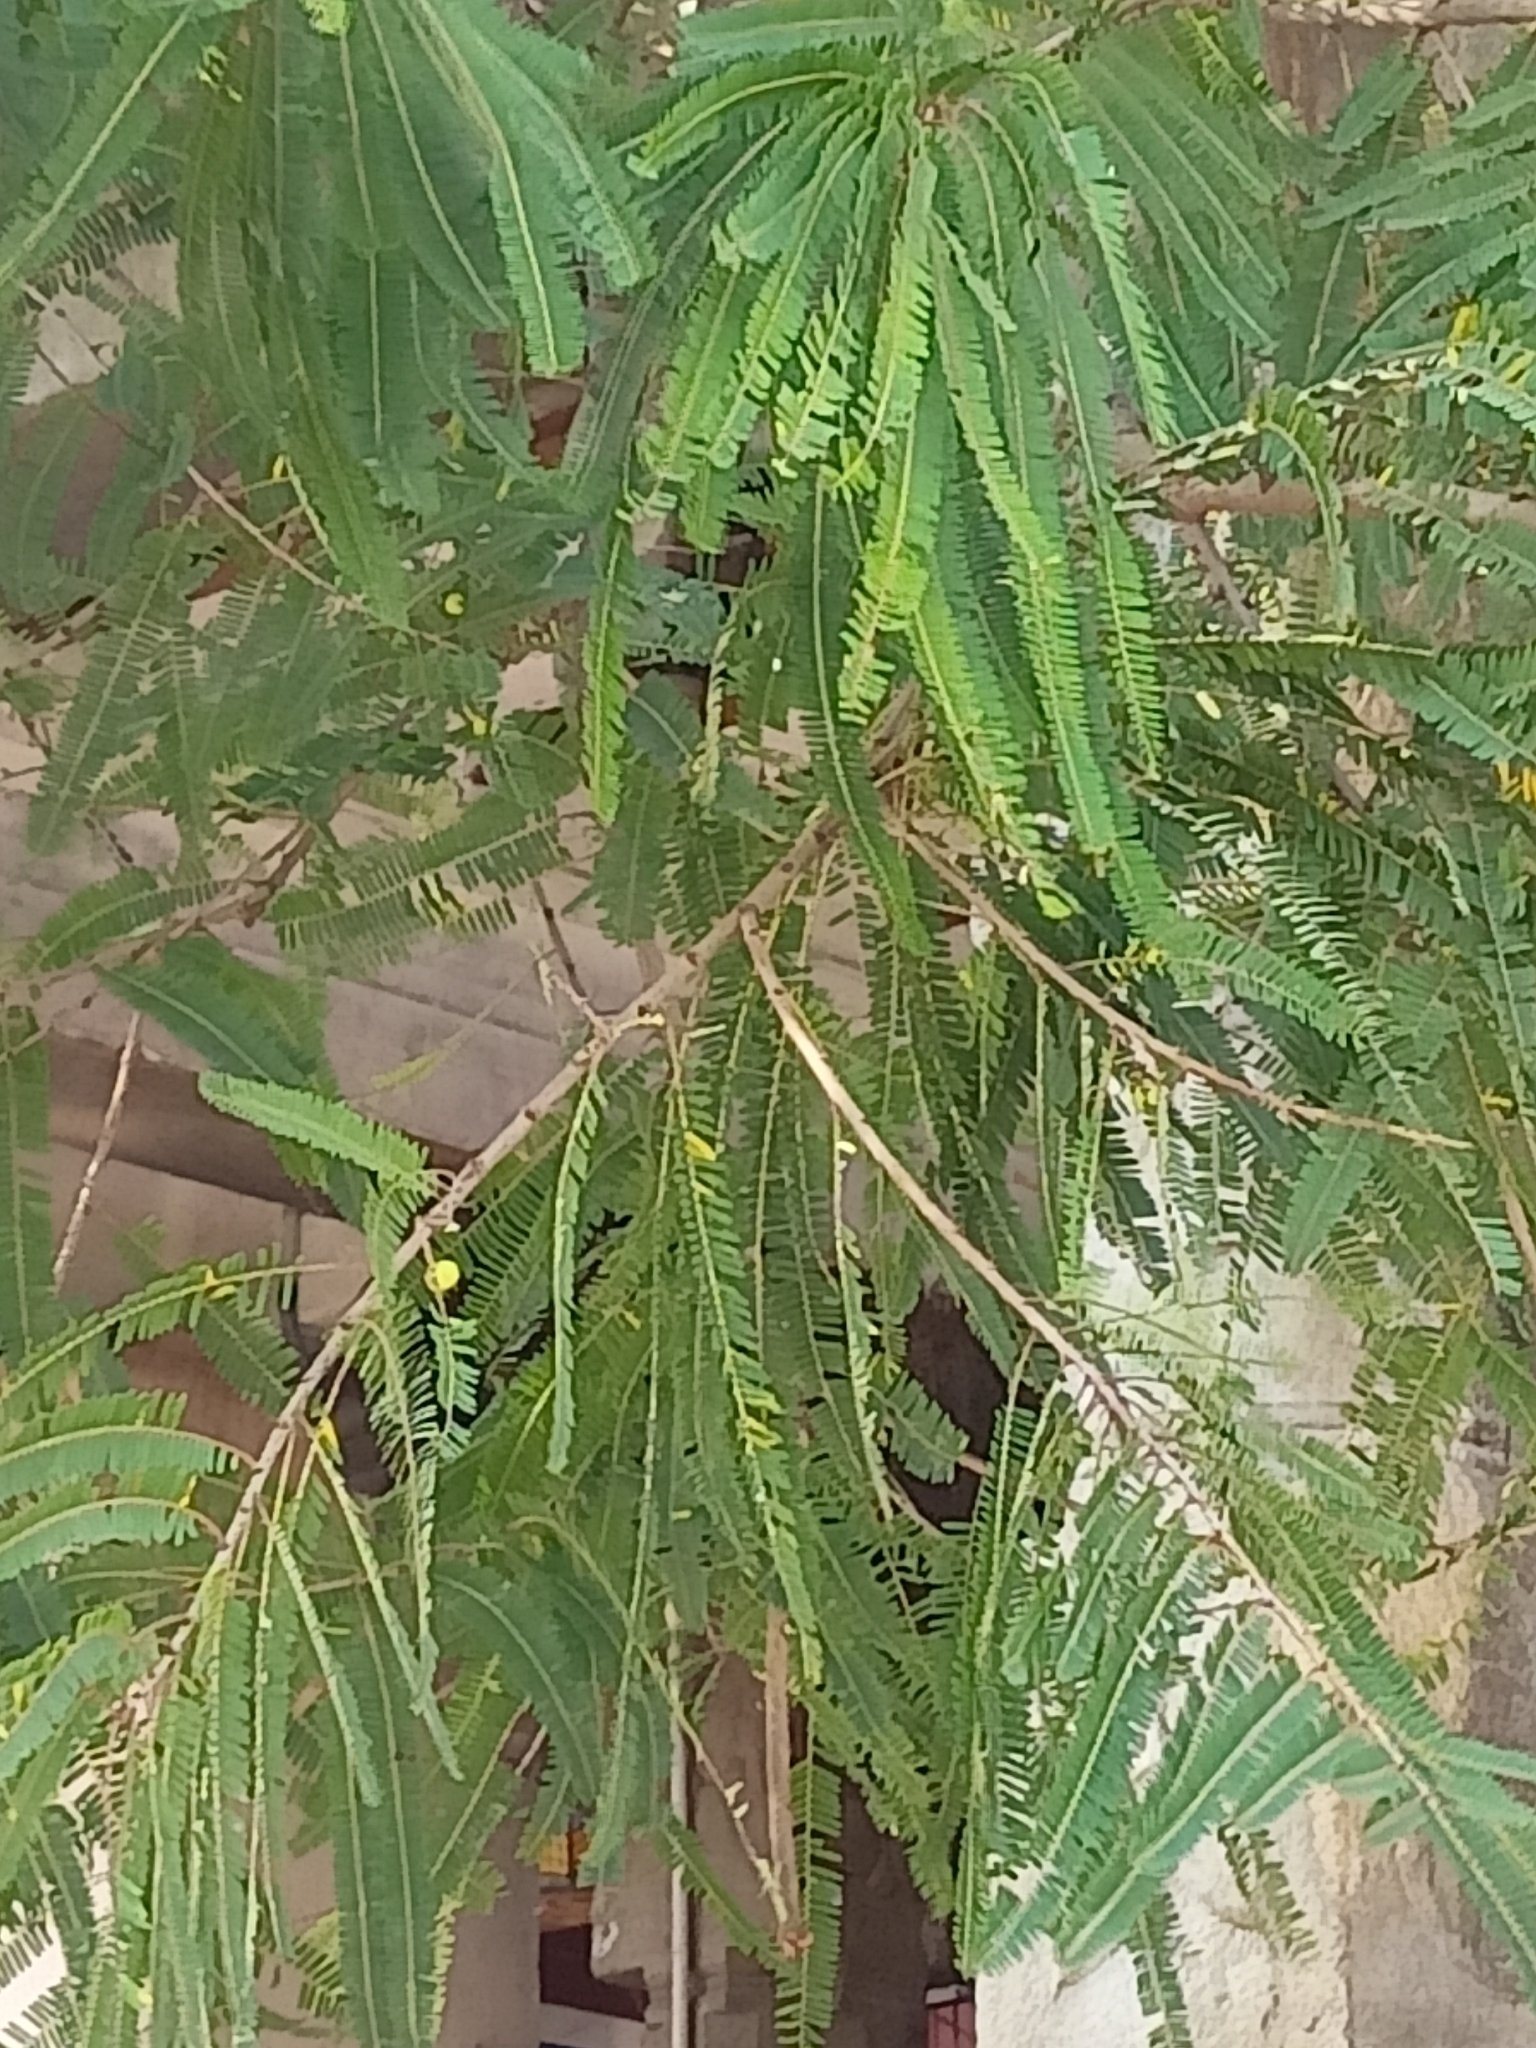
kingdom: Plantae
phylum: Tracheophyta
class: Magnoliopsida
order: Malpighiales
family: Phyllanthaceae
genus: Phyllanthus
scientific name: Phyllanthus emblica
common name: Indian gooseberry
